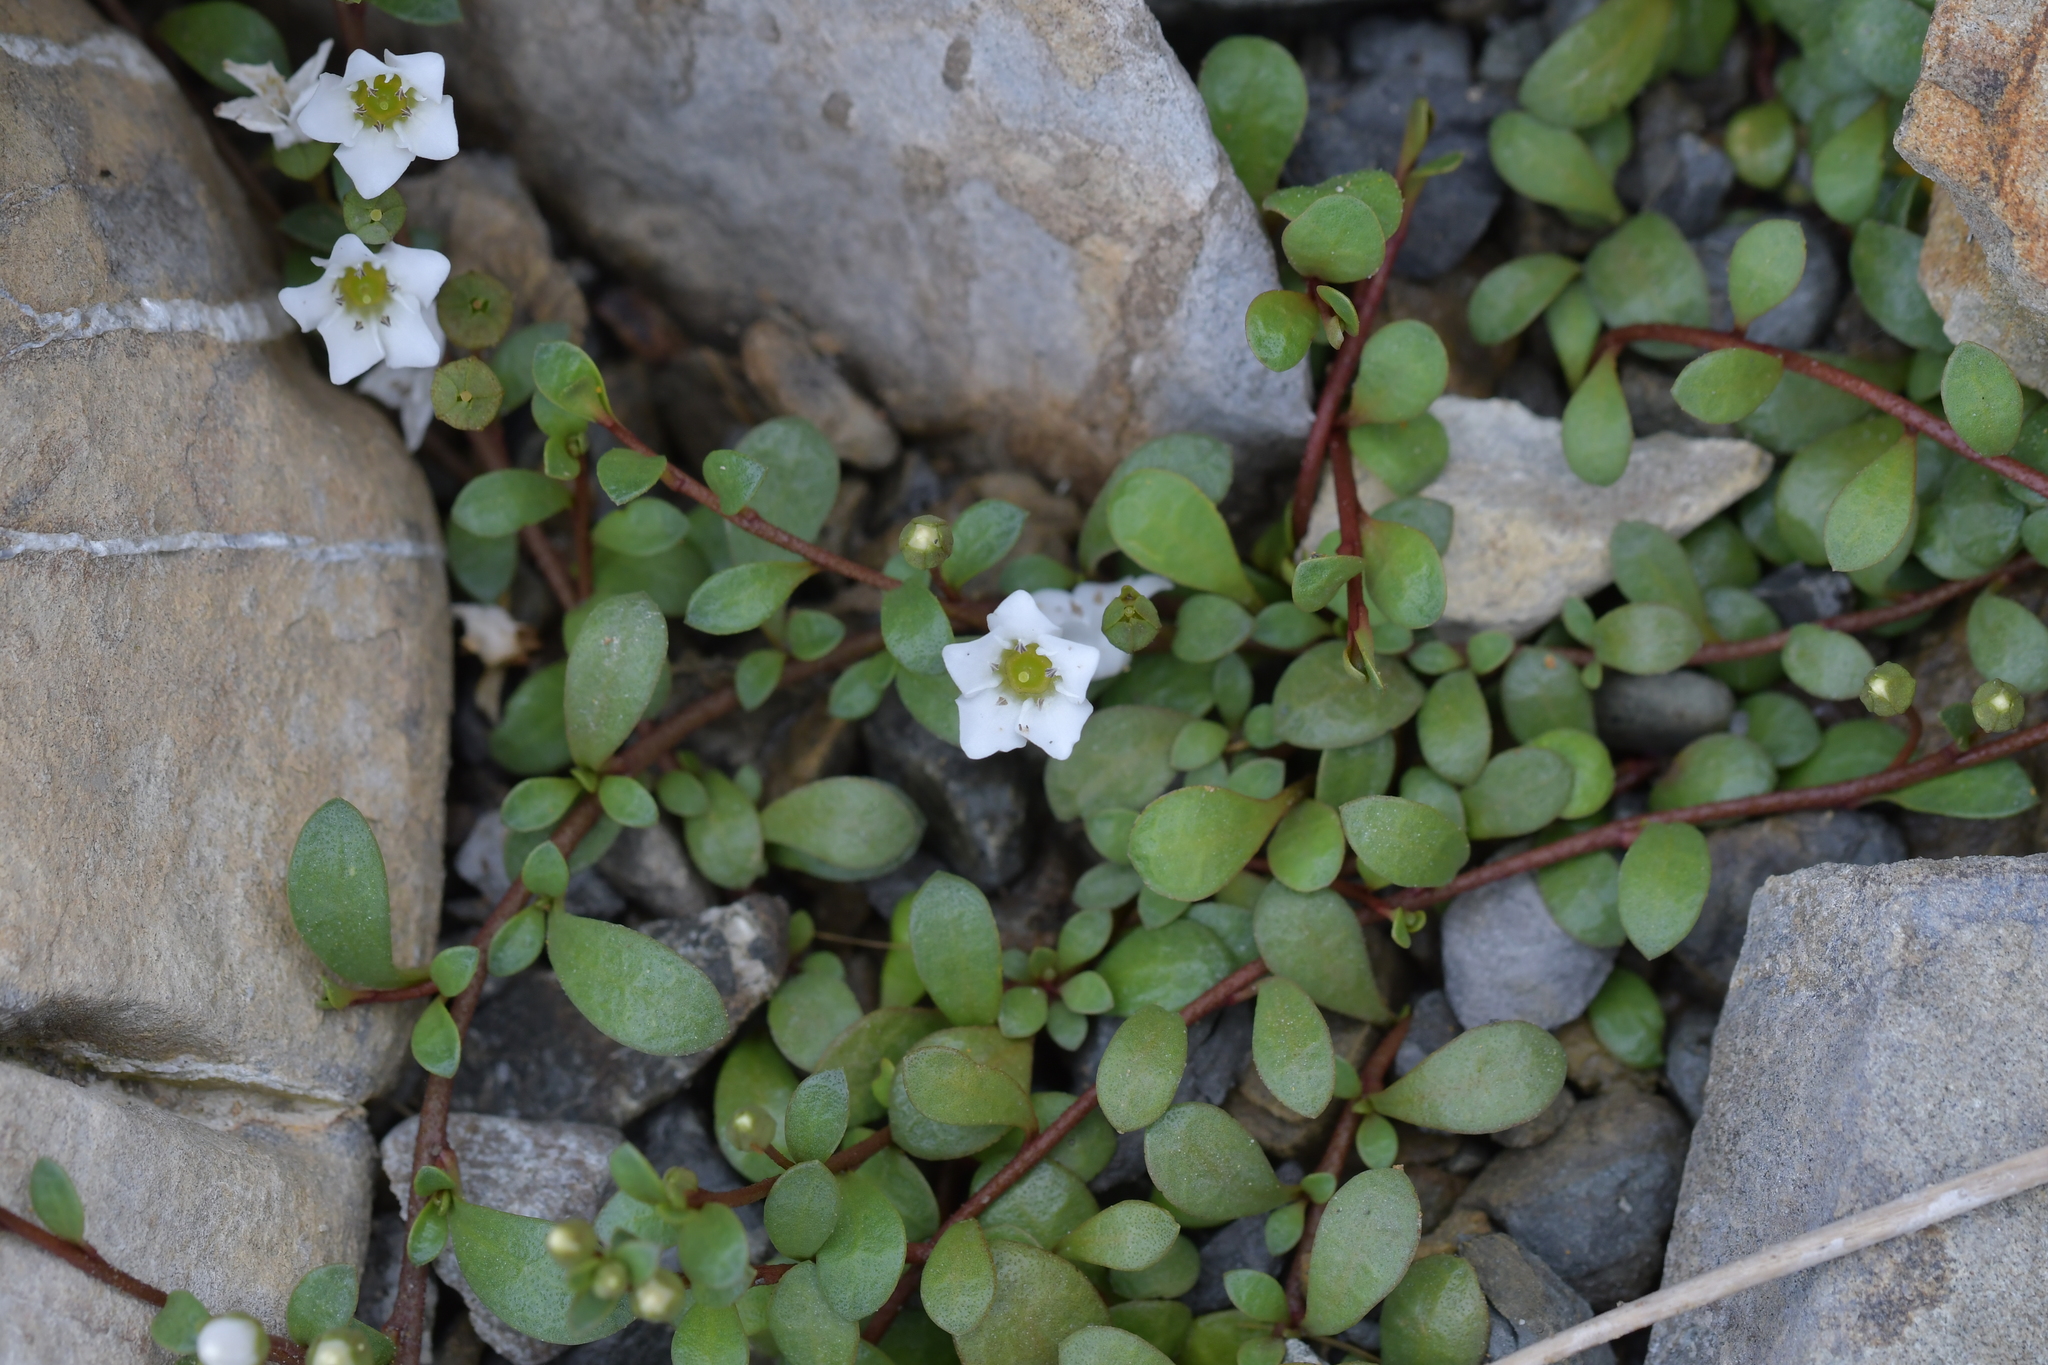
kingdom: Plantae
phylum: Tracheophyta
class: Magnoliopsida
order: Ericales
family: Primulaceae
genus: Samolus
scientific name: Samolus repens
